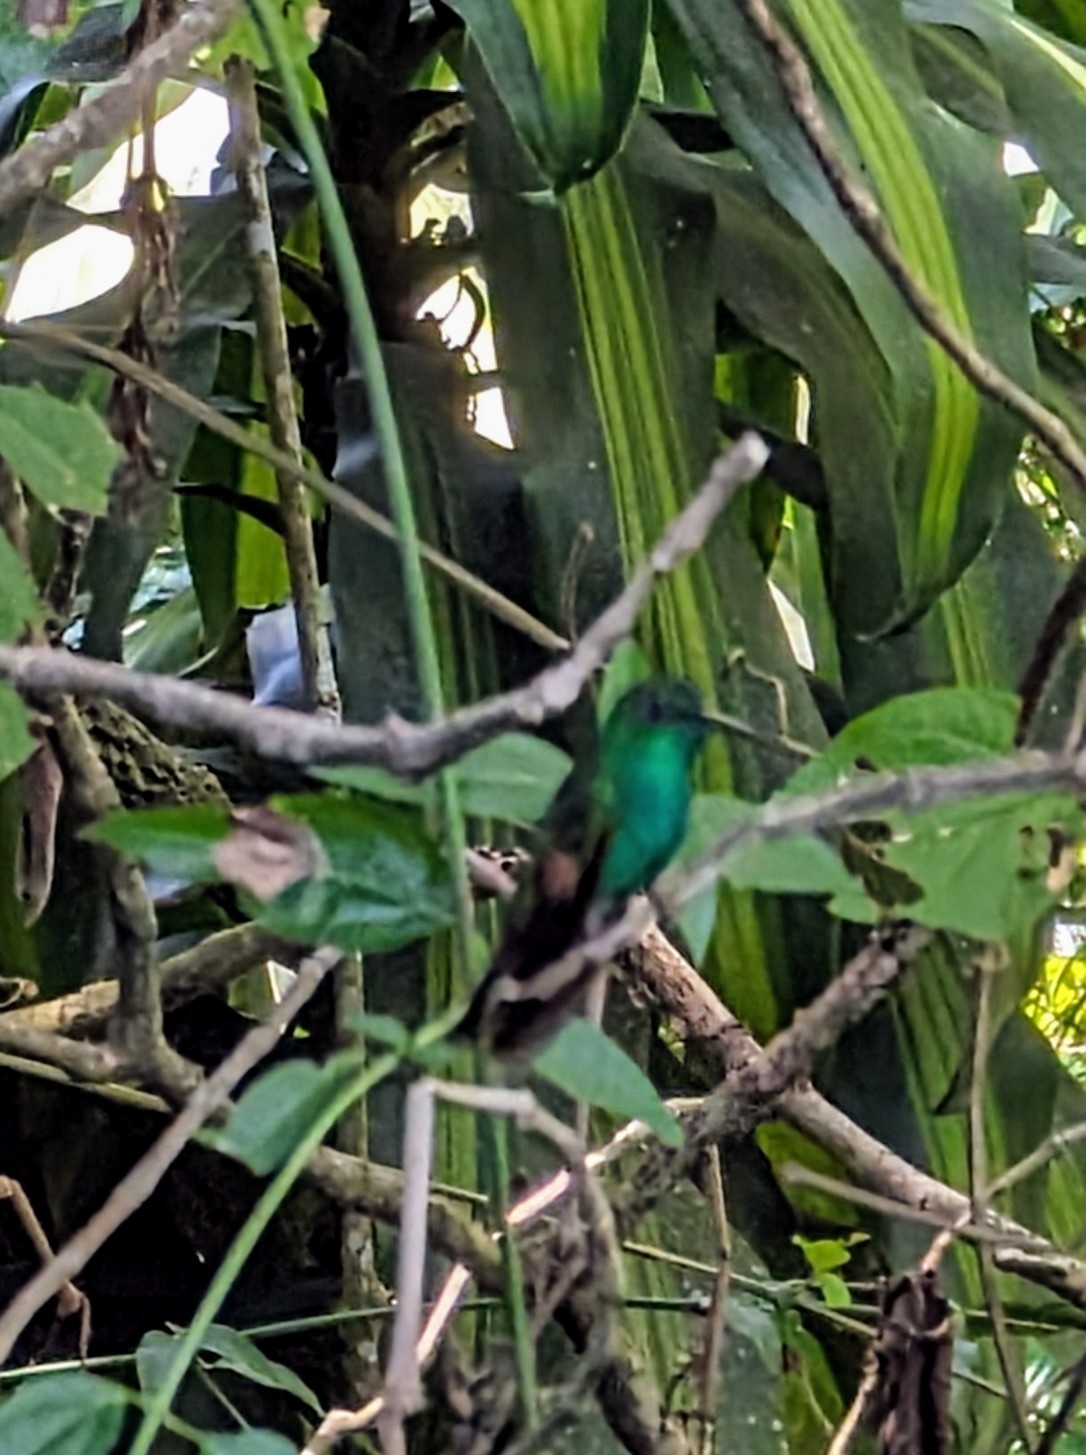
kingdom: Animalia
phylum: Chordata
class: Aves
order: Apodiformes
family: Trochilidae
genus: Eupherusa
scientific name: Eupherusa eximia
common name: Stripe-tailed hummingbird
